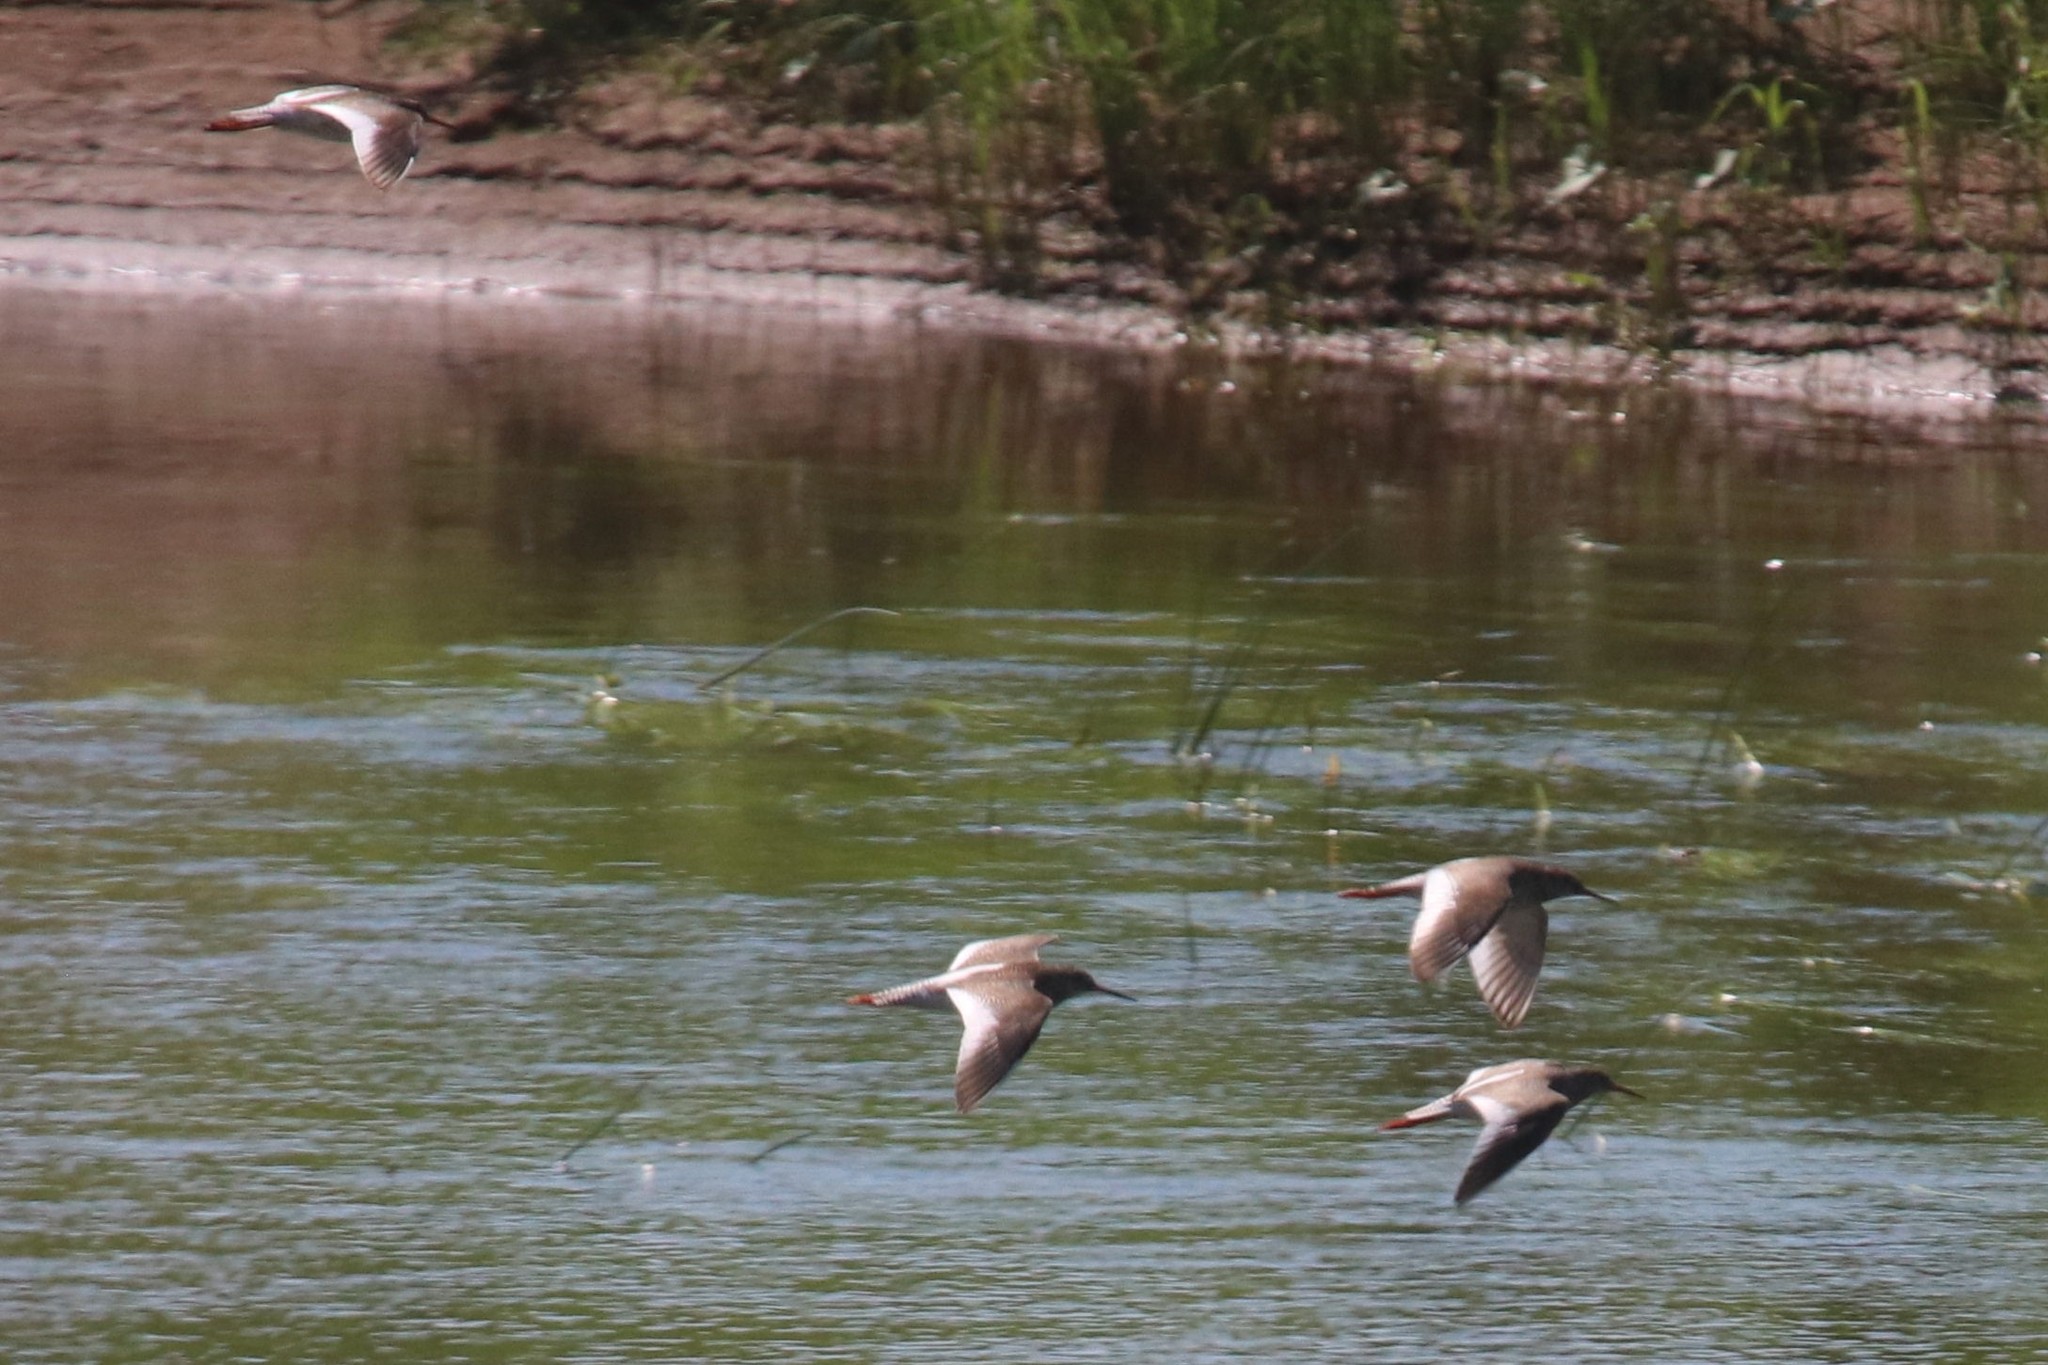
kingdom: Animalia
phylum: Chordata
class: Aves
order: Charadriiformes
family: Scolopacidae
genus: Tringa
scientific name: Tringa totanus
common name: Common redshank
